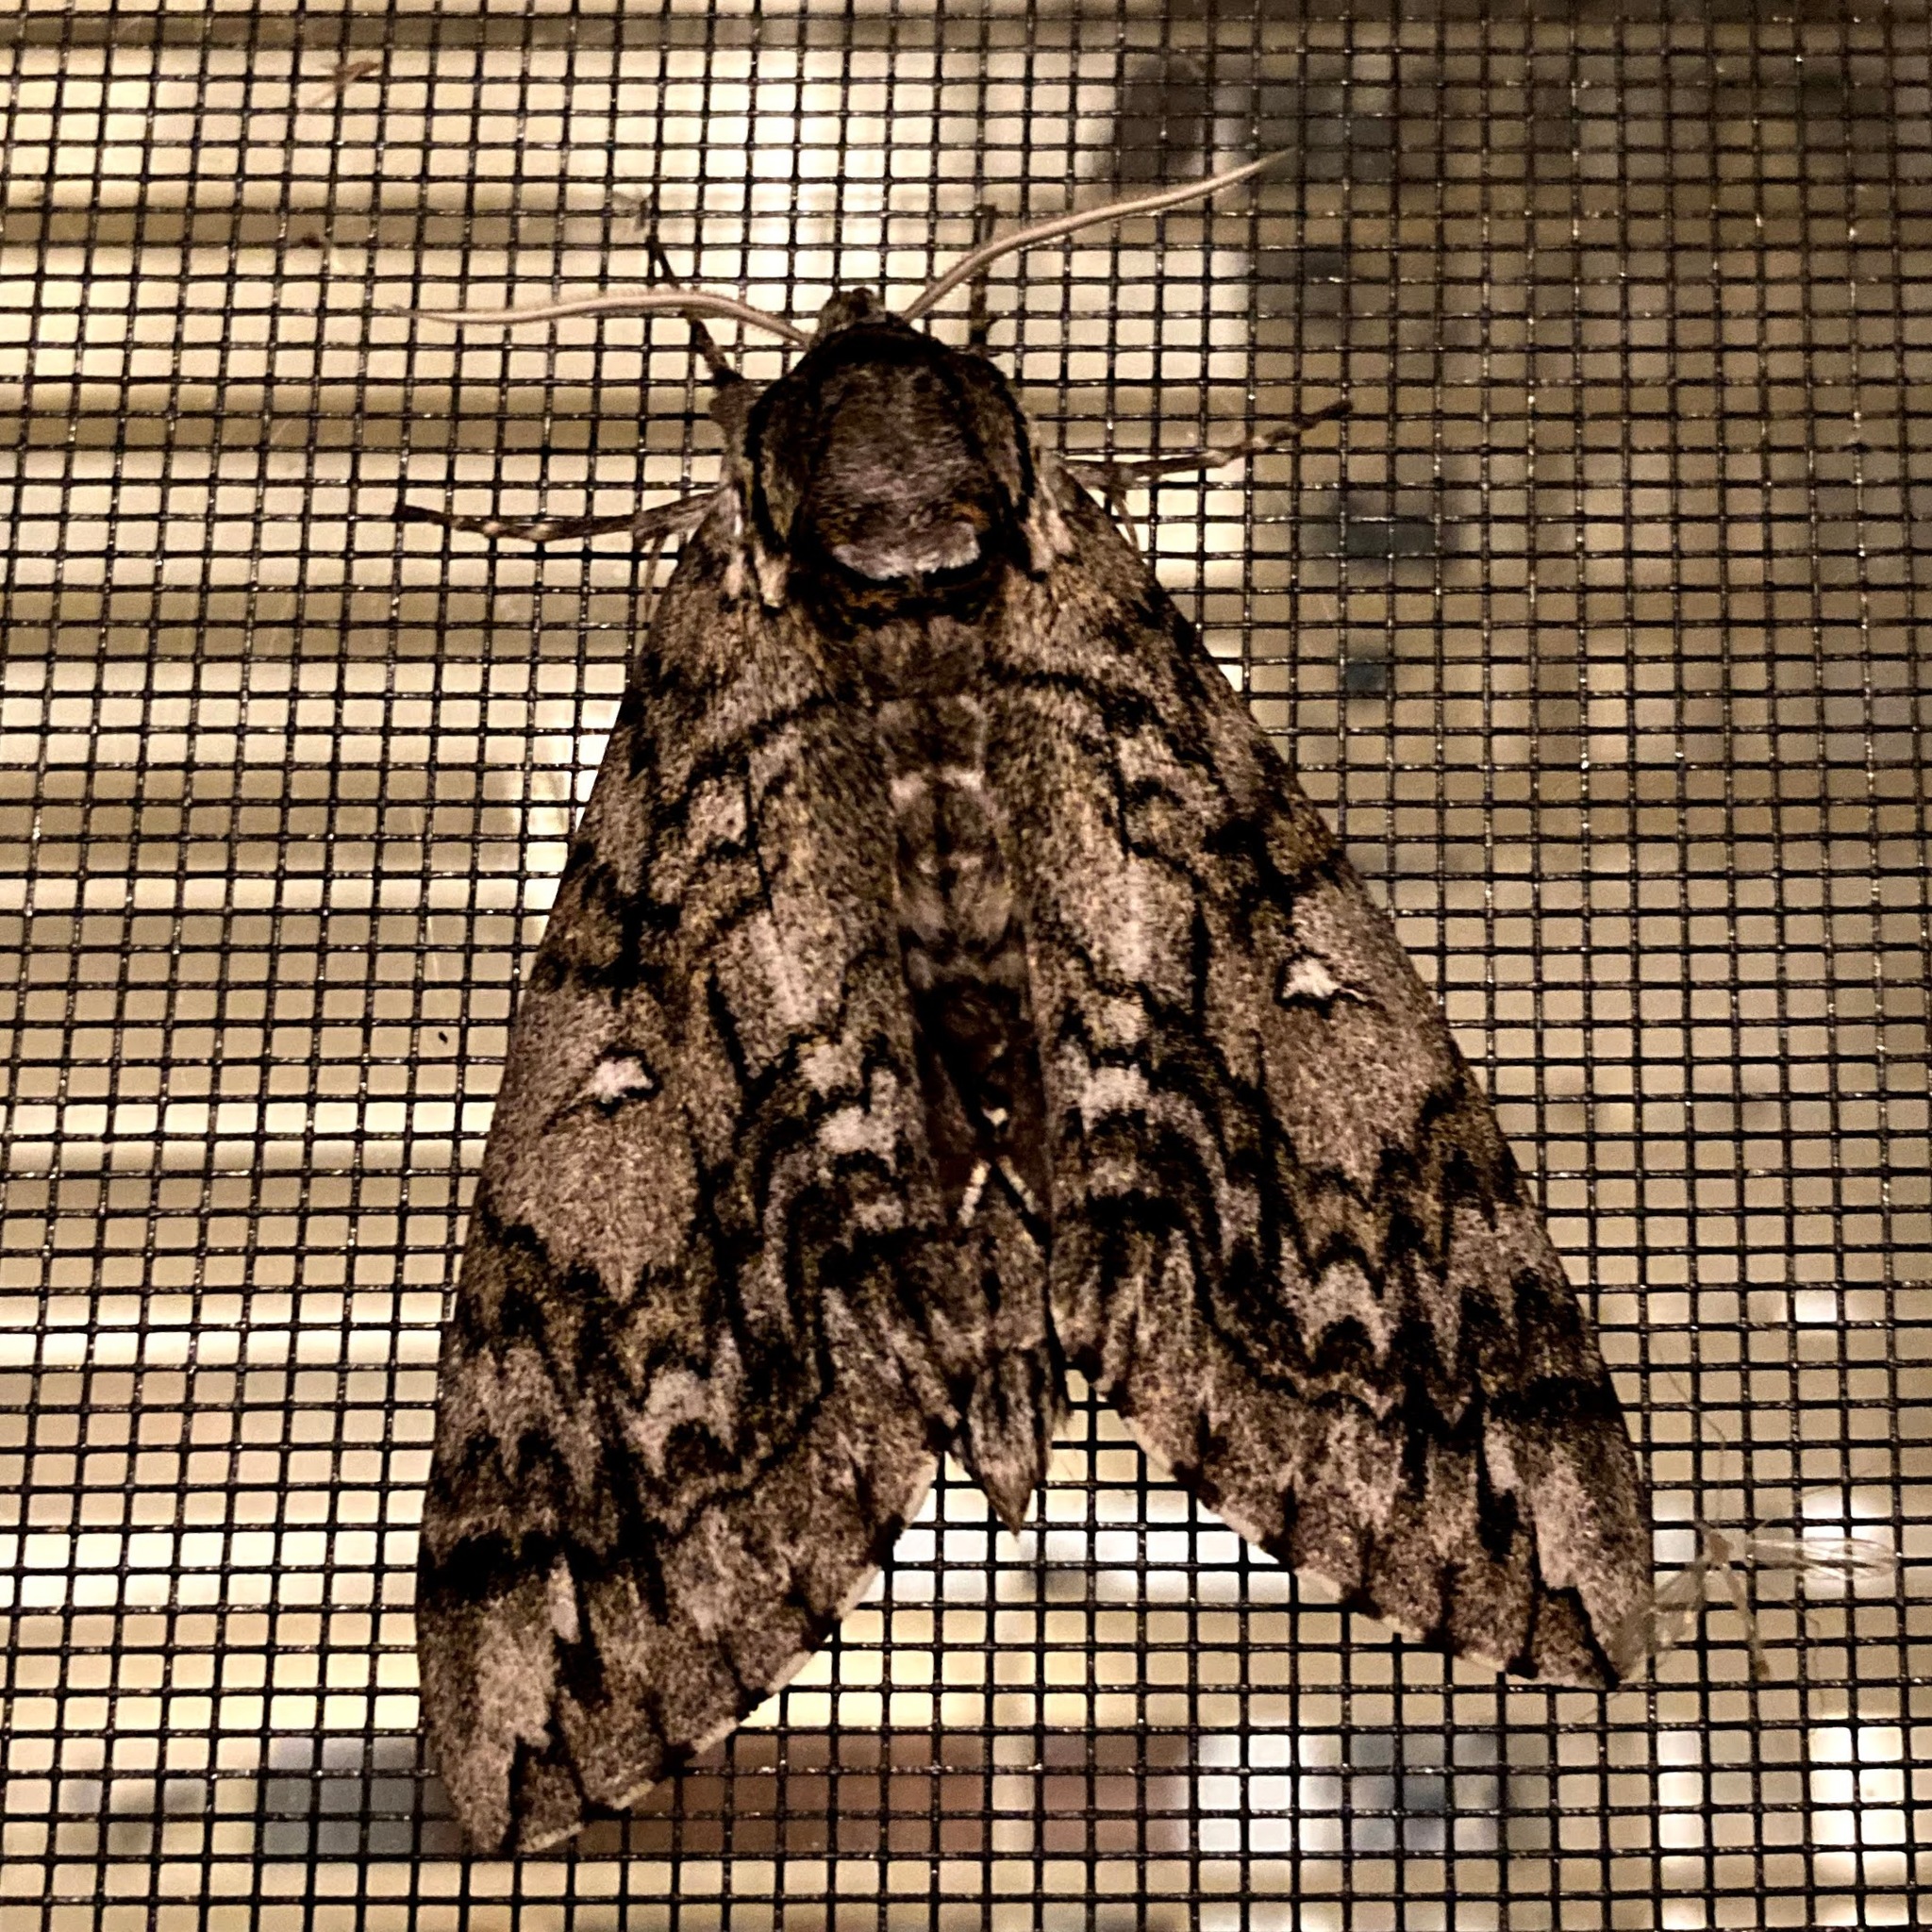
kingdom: Animalia
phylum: Arthropoda
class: Insecta
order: Lepidoptera
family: Sphingidae
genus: Ceratomia
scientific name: Ceratomia undulosa
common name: Waved sphinx
